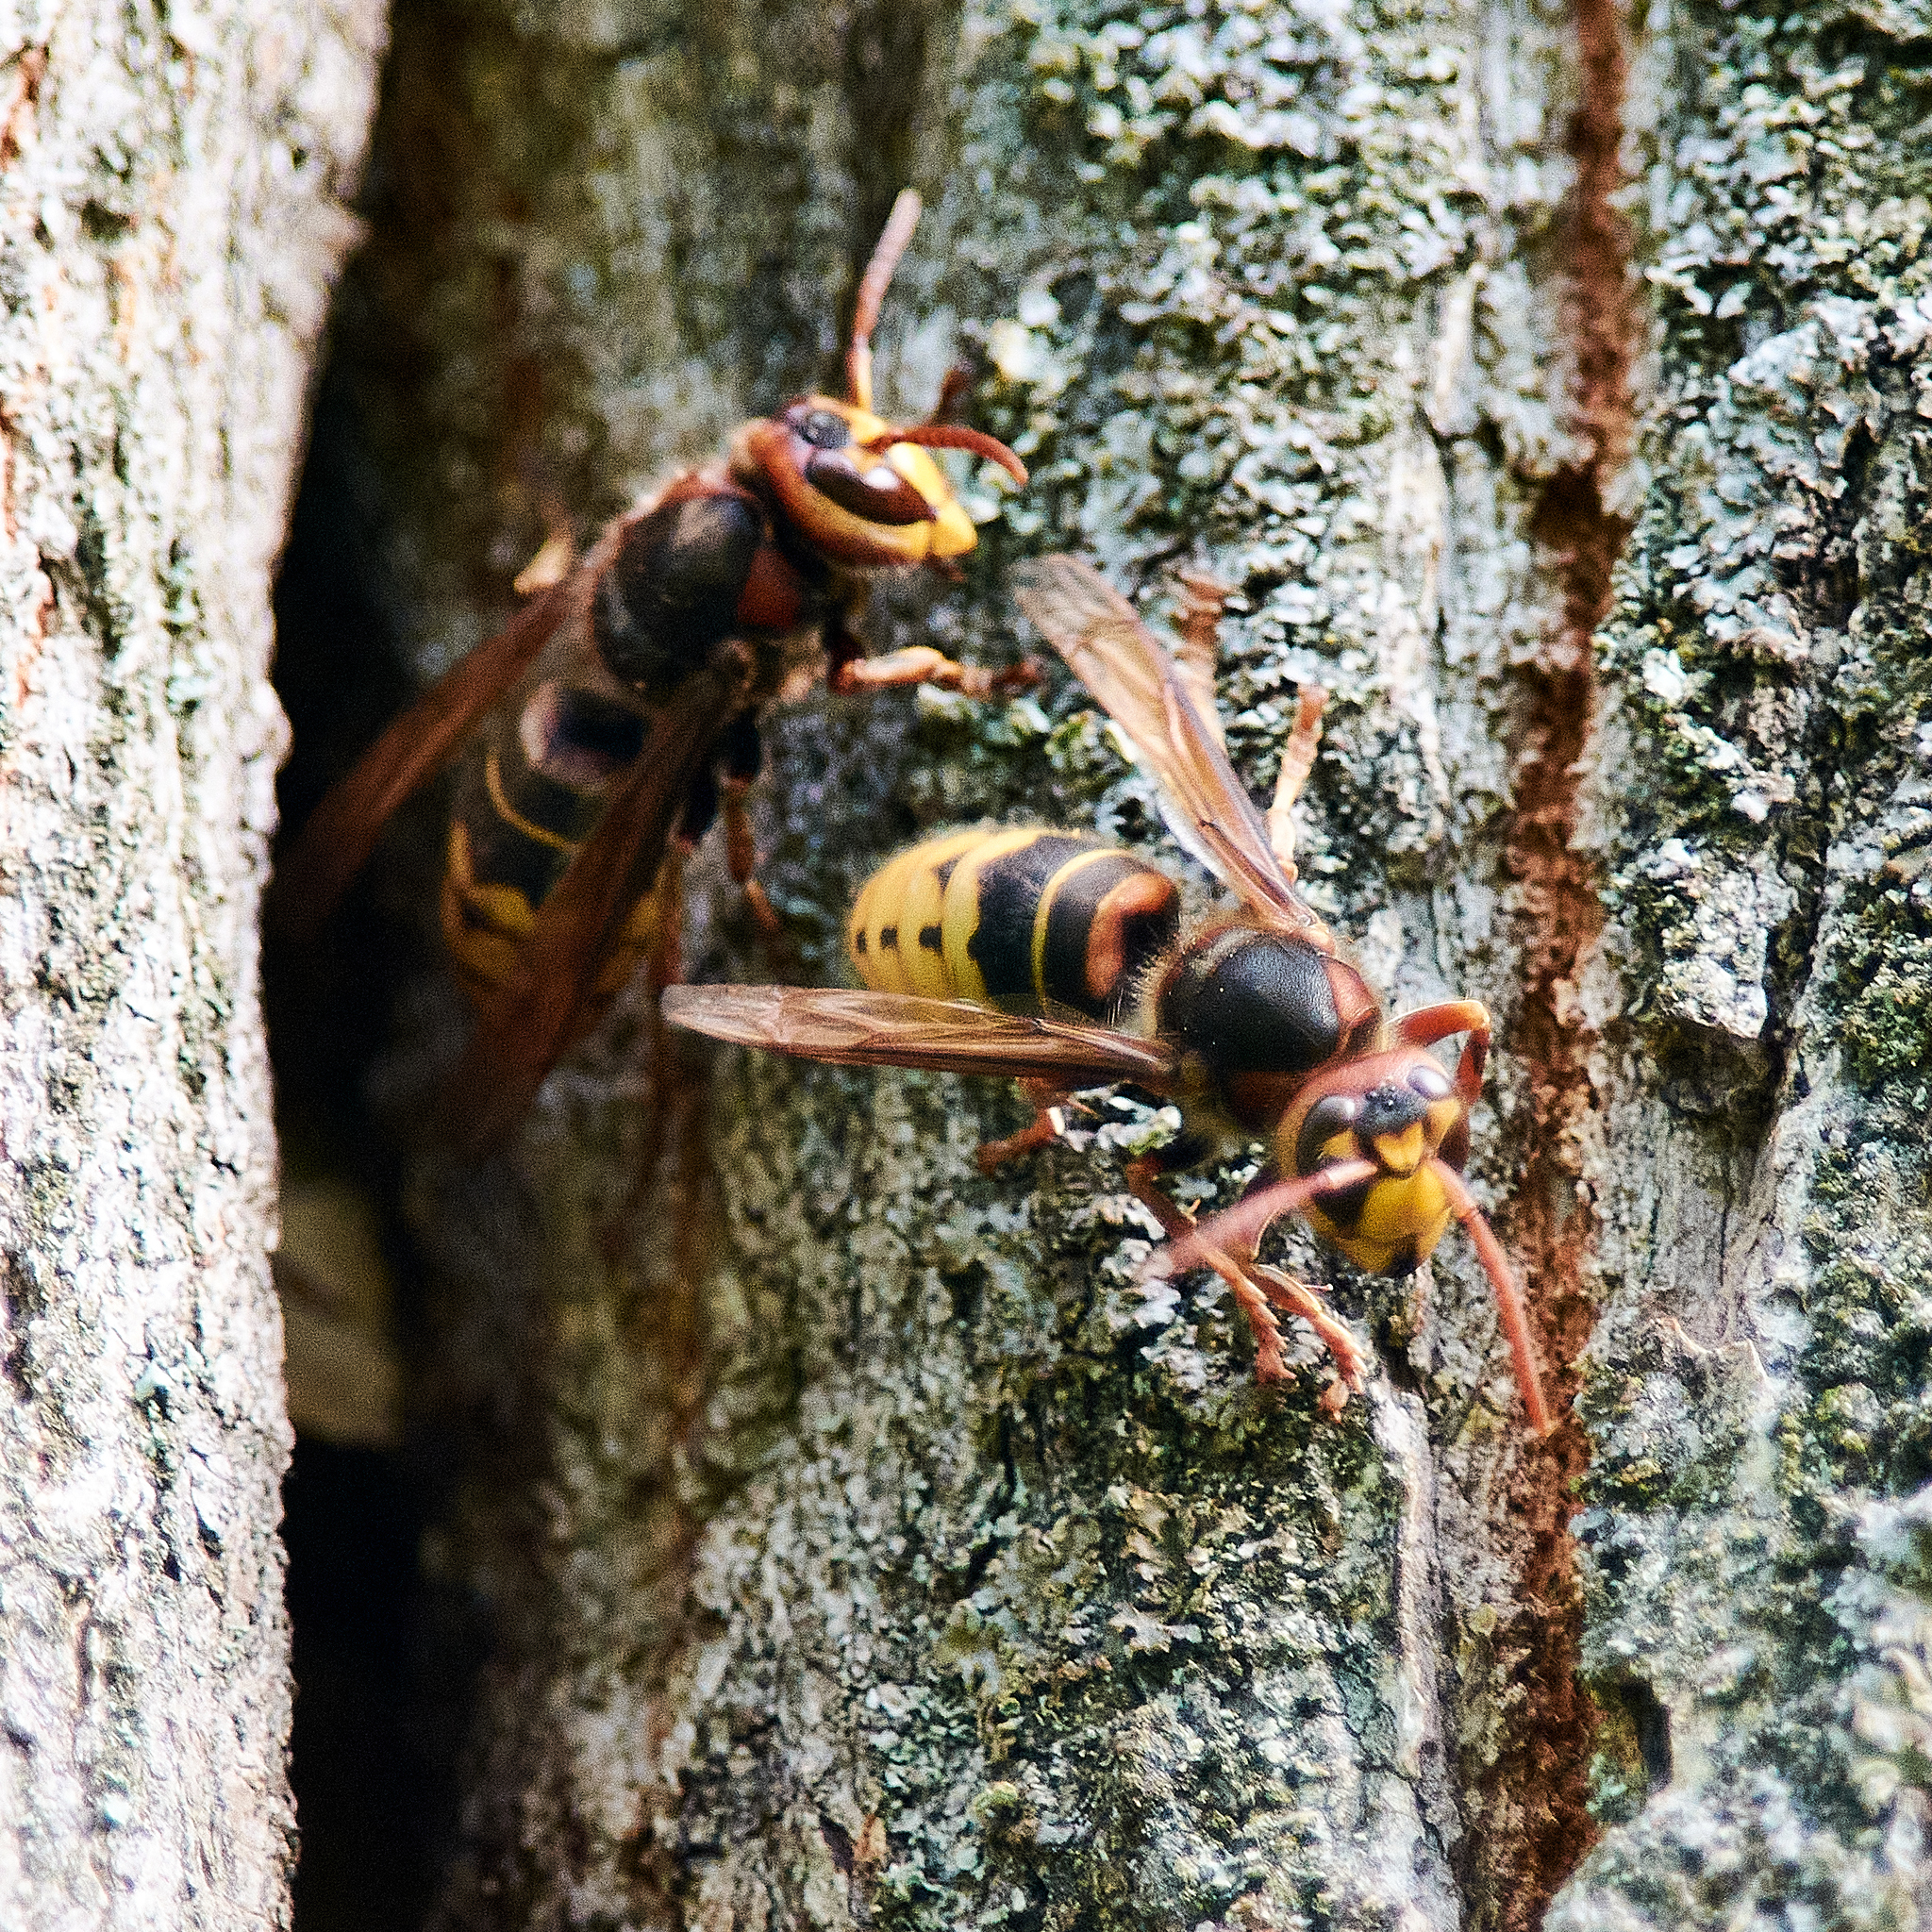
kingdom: Animalia
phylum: Arthropoda
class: Insecta
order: Hymenoptera
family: Vespidae
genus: Vespa
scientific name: Vespa crabro
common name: Hornet
